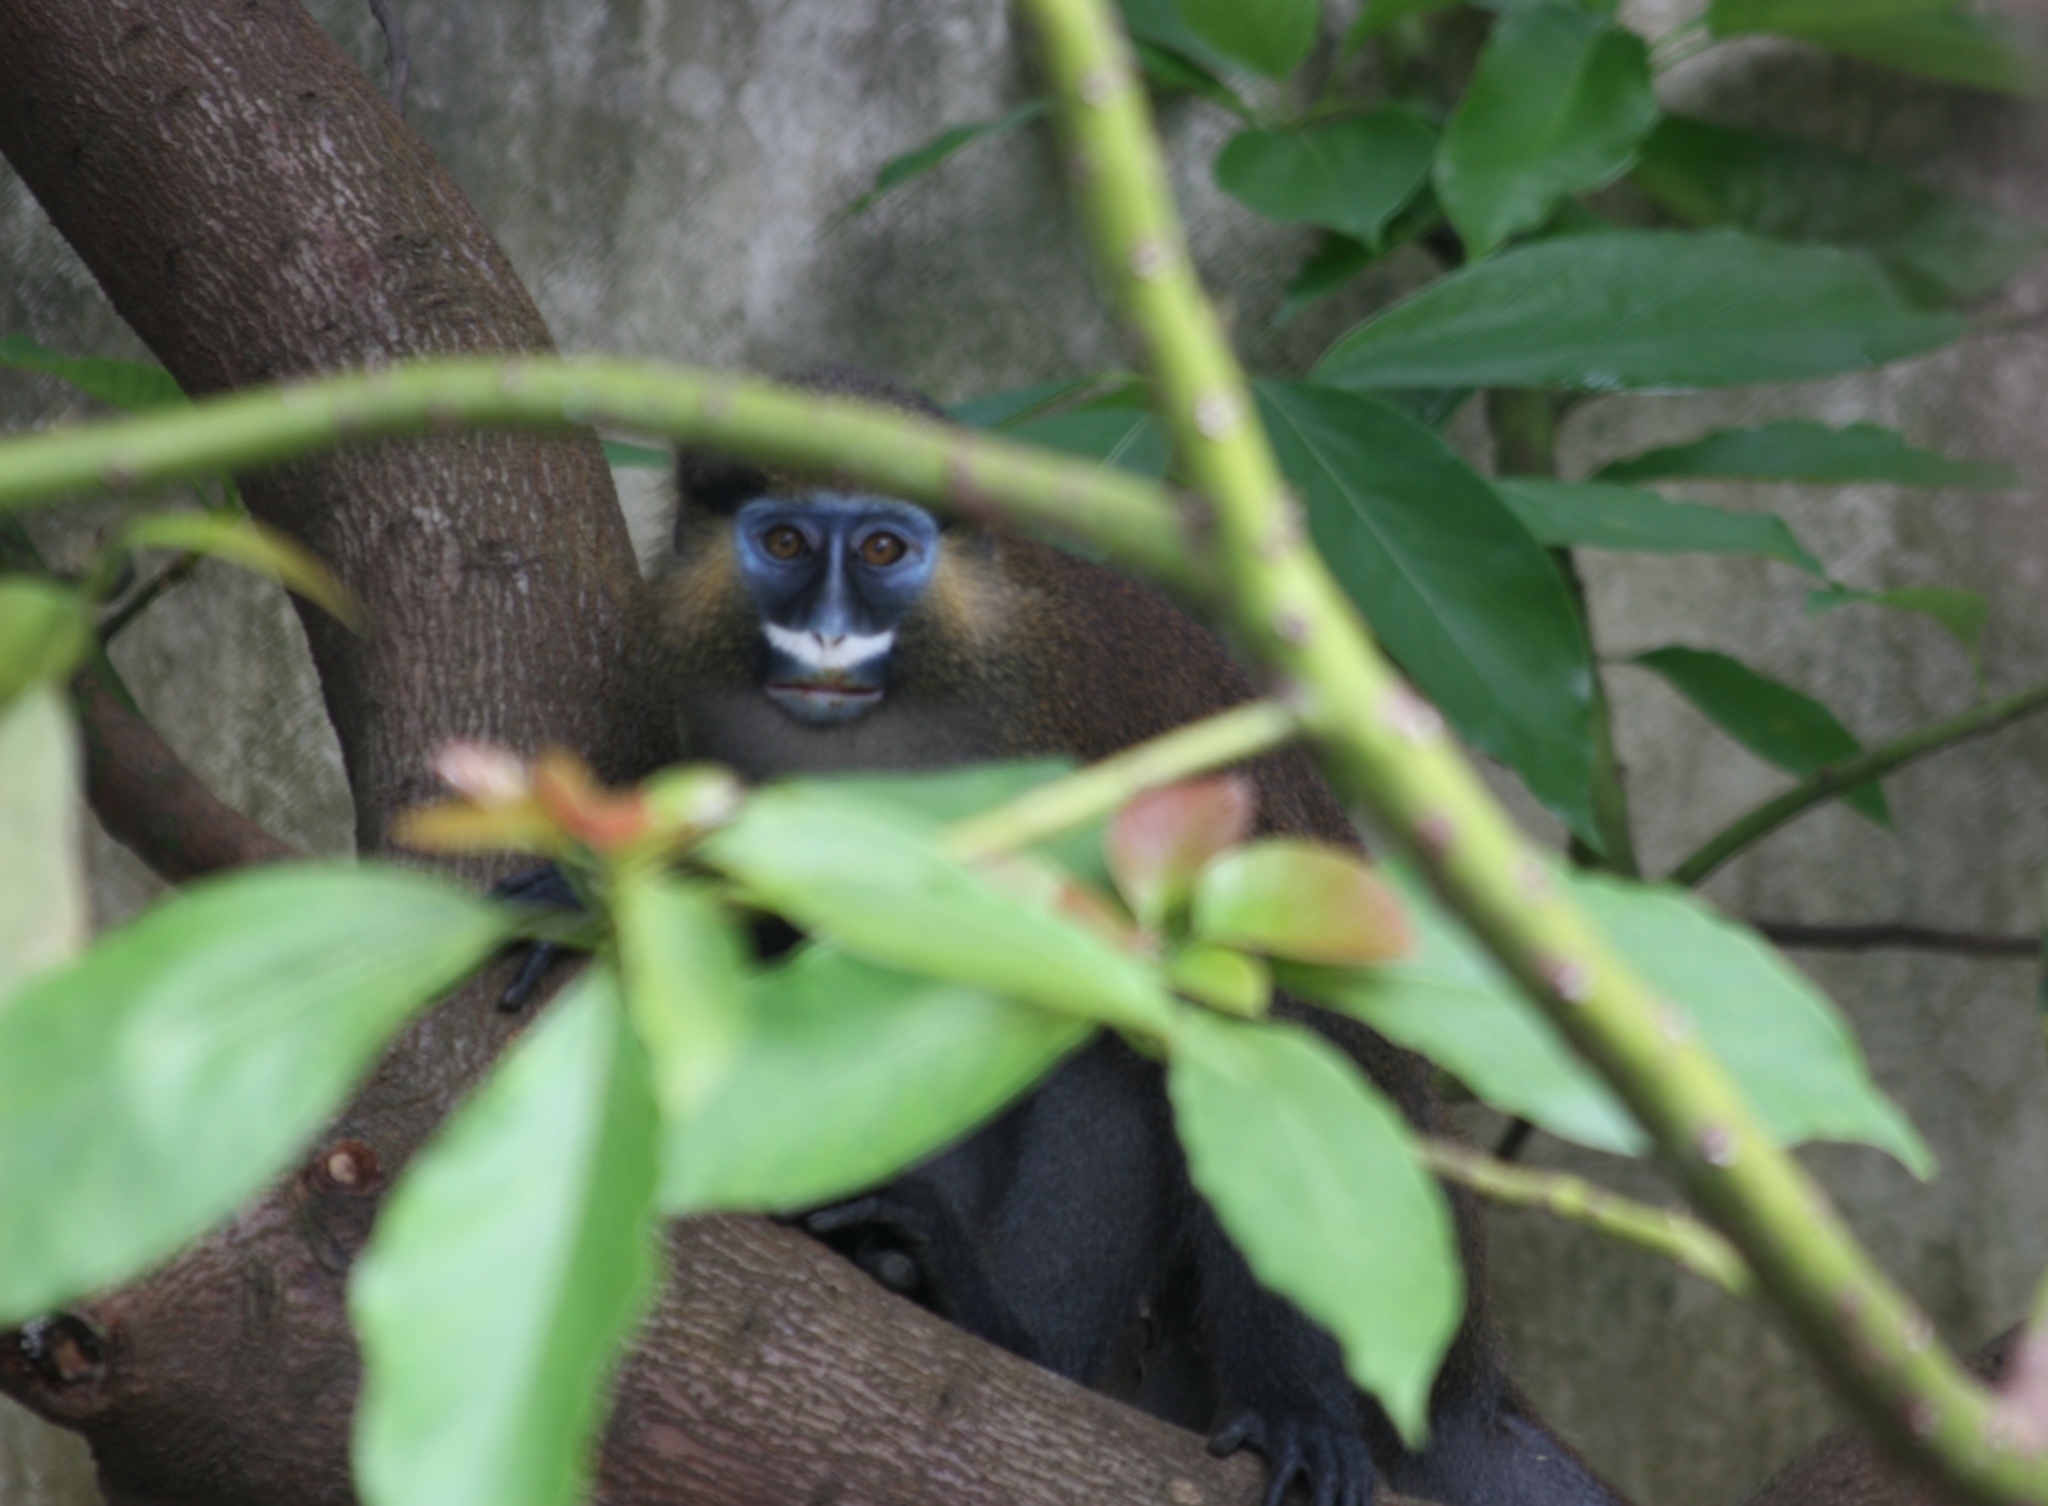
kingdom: Animalia
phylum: Chordata
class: Mammalia
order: Primates
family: Cercopithecidae
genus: Cercopithecus
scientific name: Cercopithecus cephus
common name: Moustached guenon
